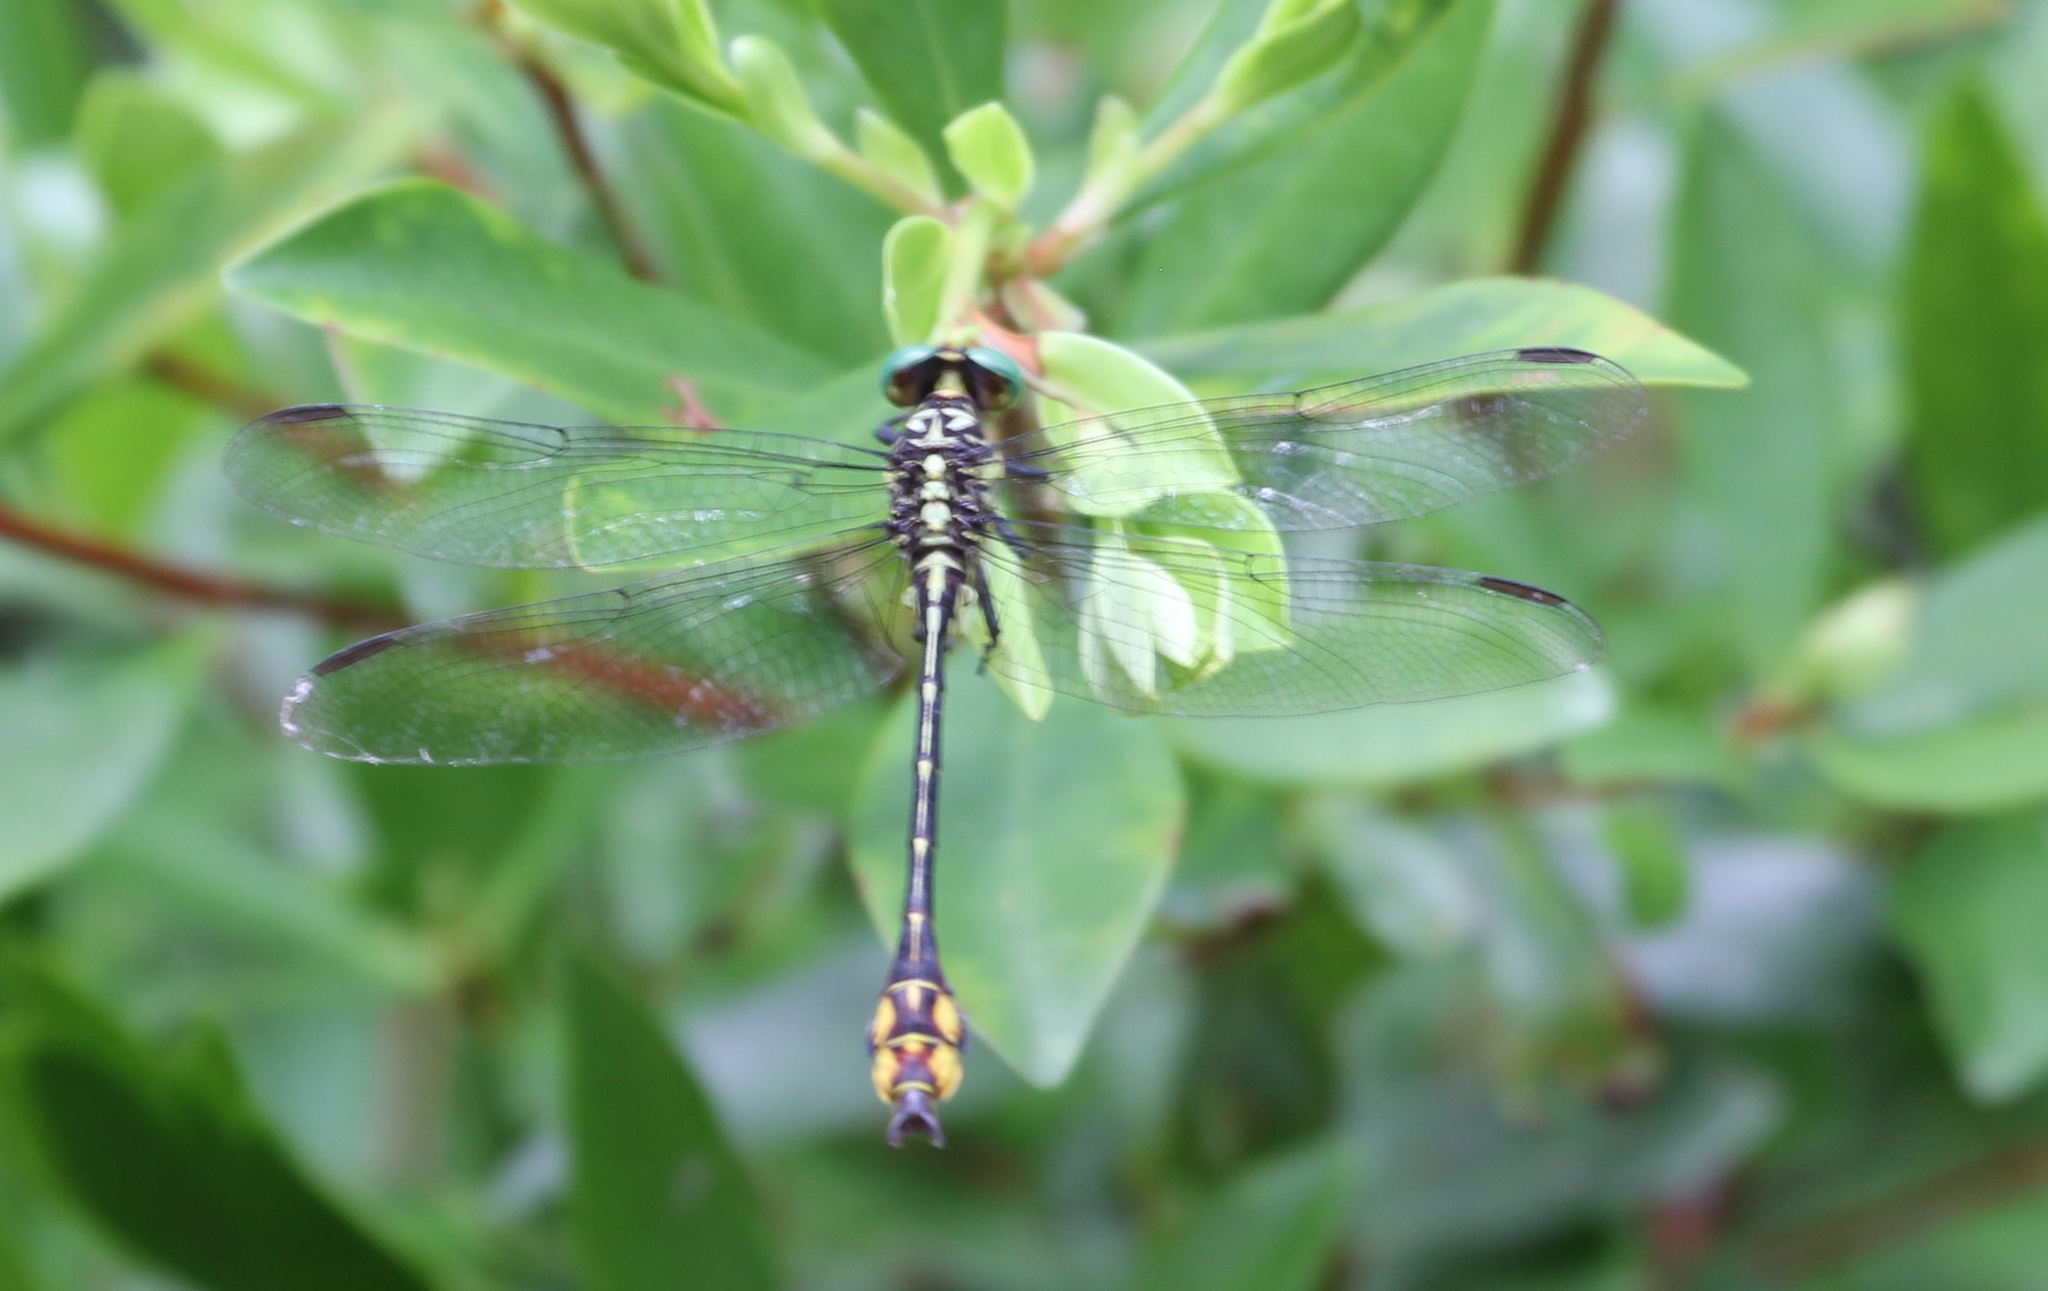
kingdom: Animalia
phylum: Arthropoda
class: Insecta
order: Odonata
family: Gomphidae
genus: Stylurus
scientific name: Stylurus laurae
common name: Laura's clubtail
